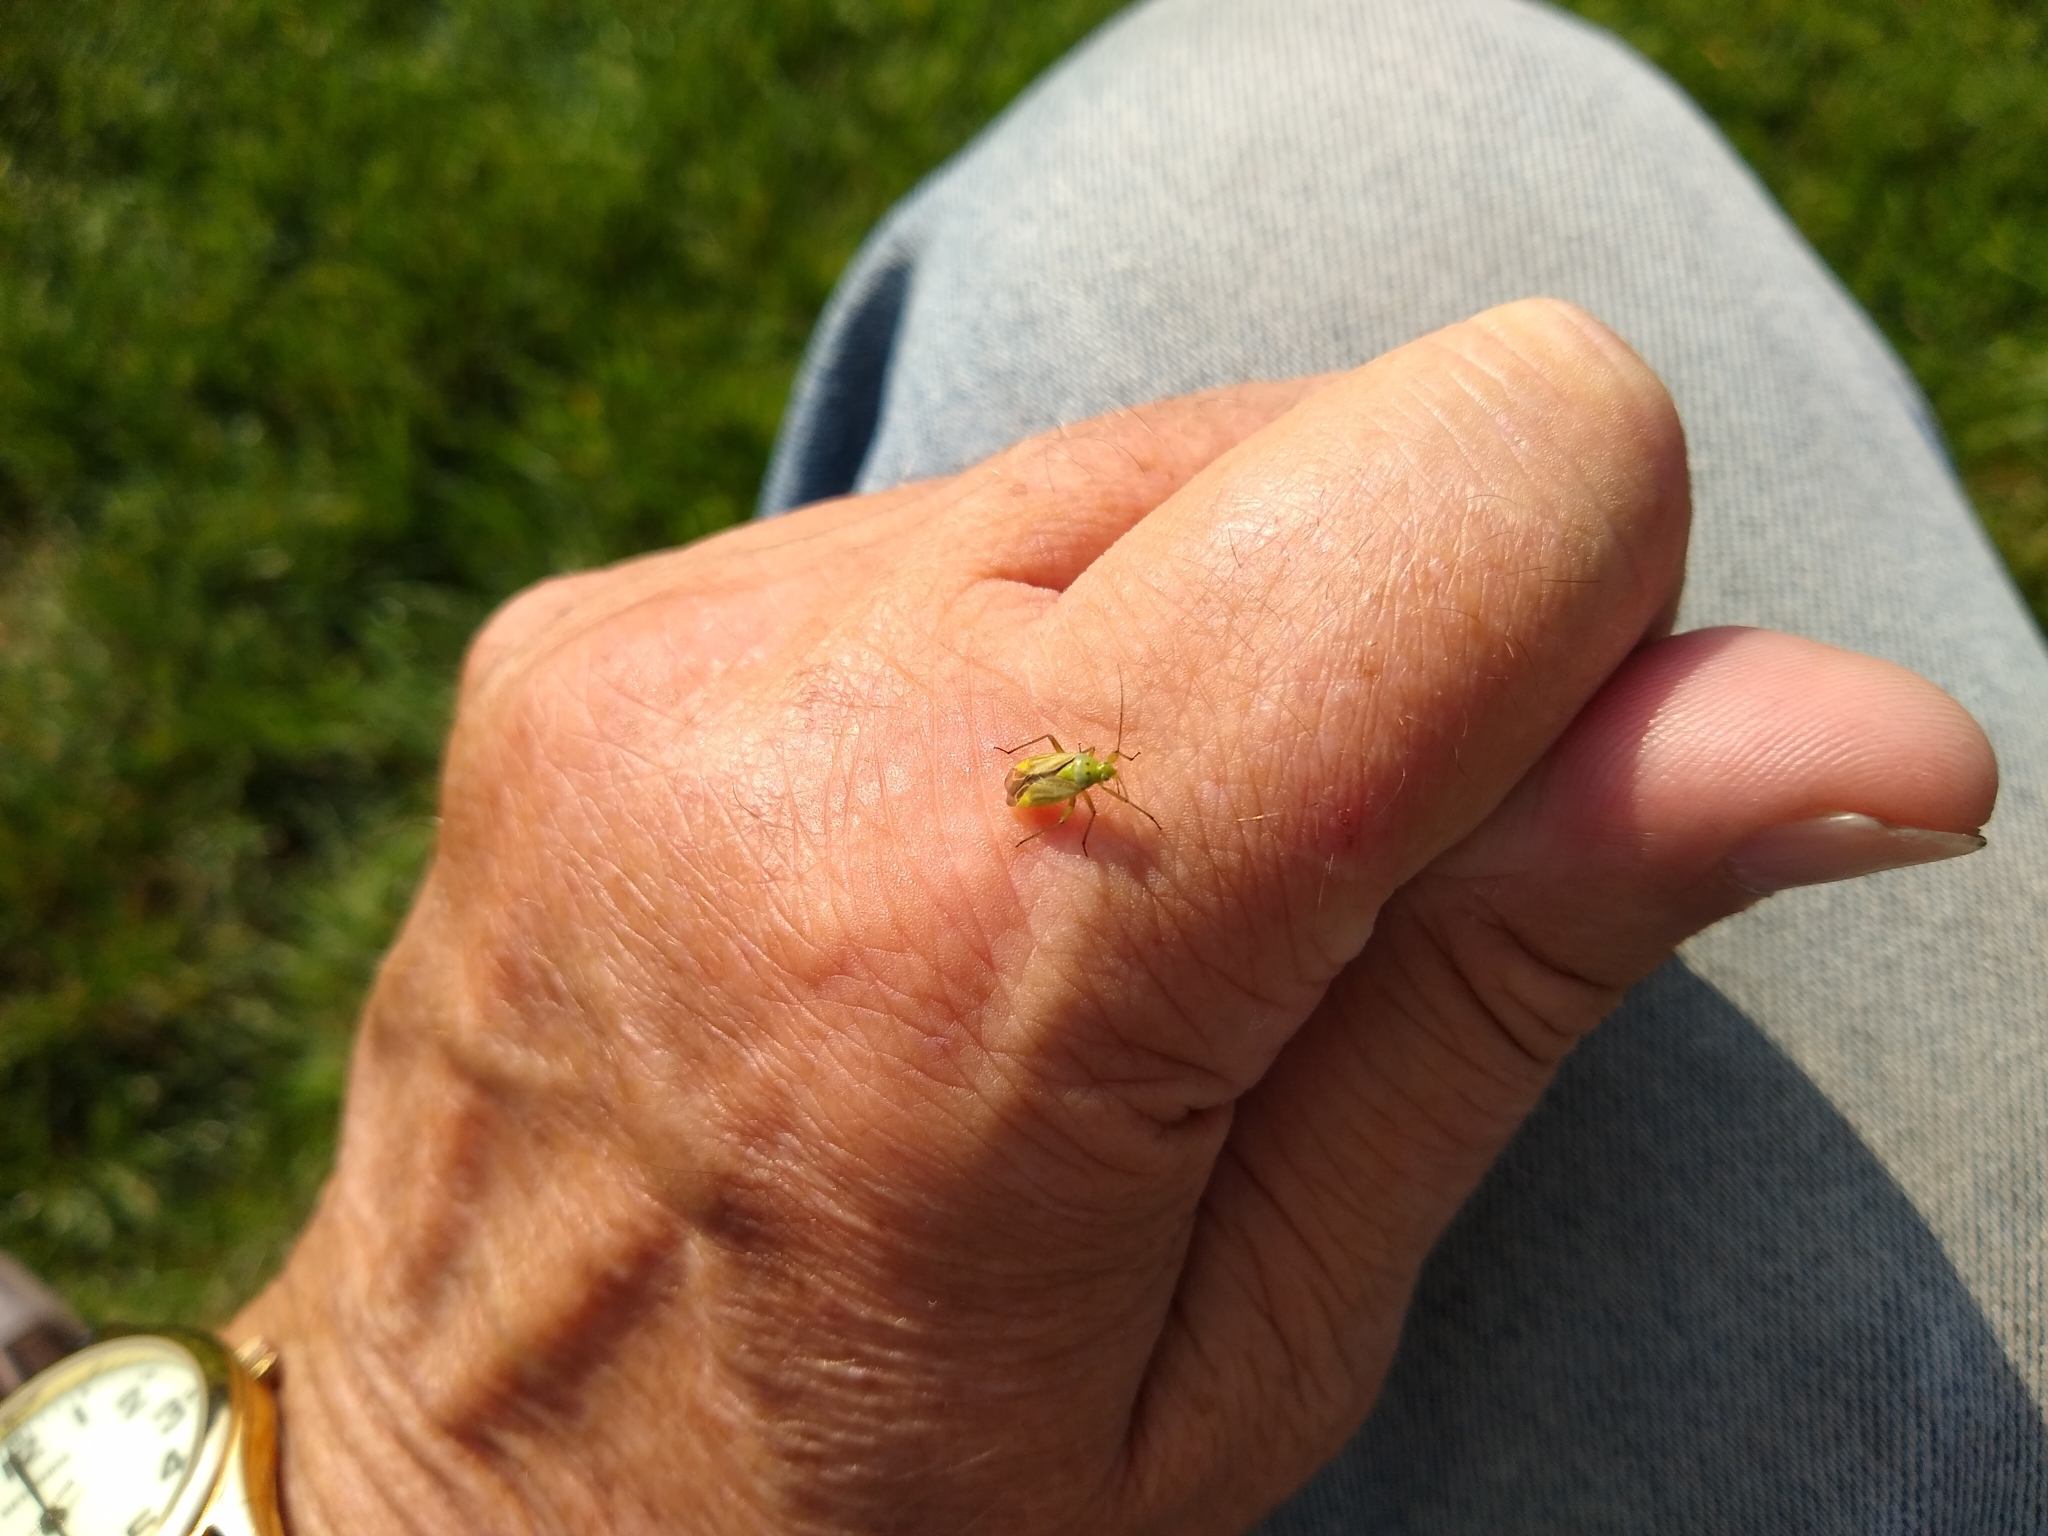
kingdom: Animalia
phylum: Arthropoda
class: Insecta
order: Hemiptera
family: Miridae
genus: Closterotomus
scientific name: Closterotomus norvegicus
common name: Plant bug
